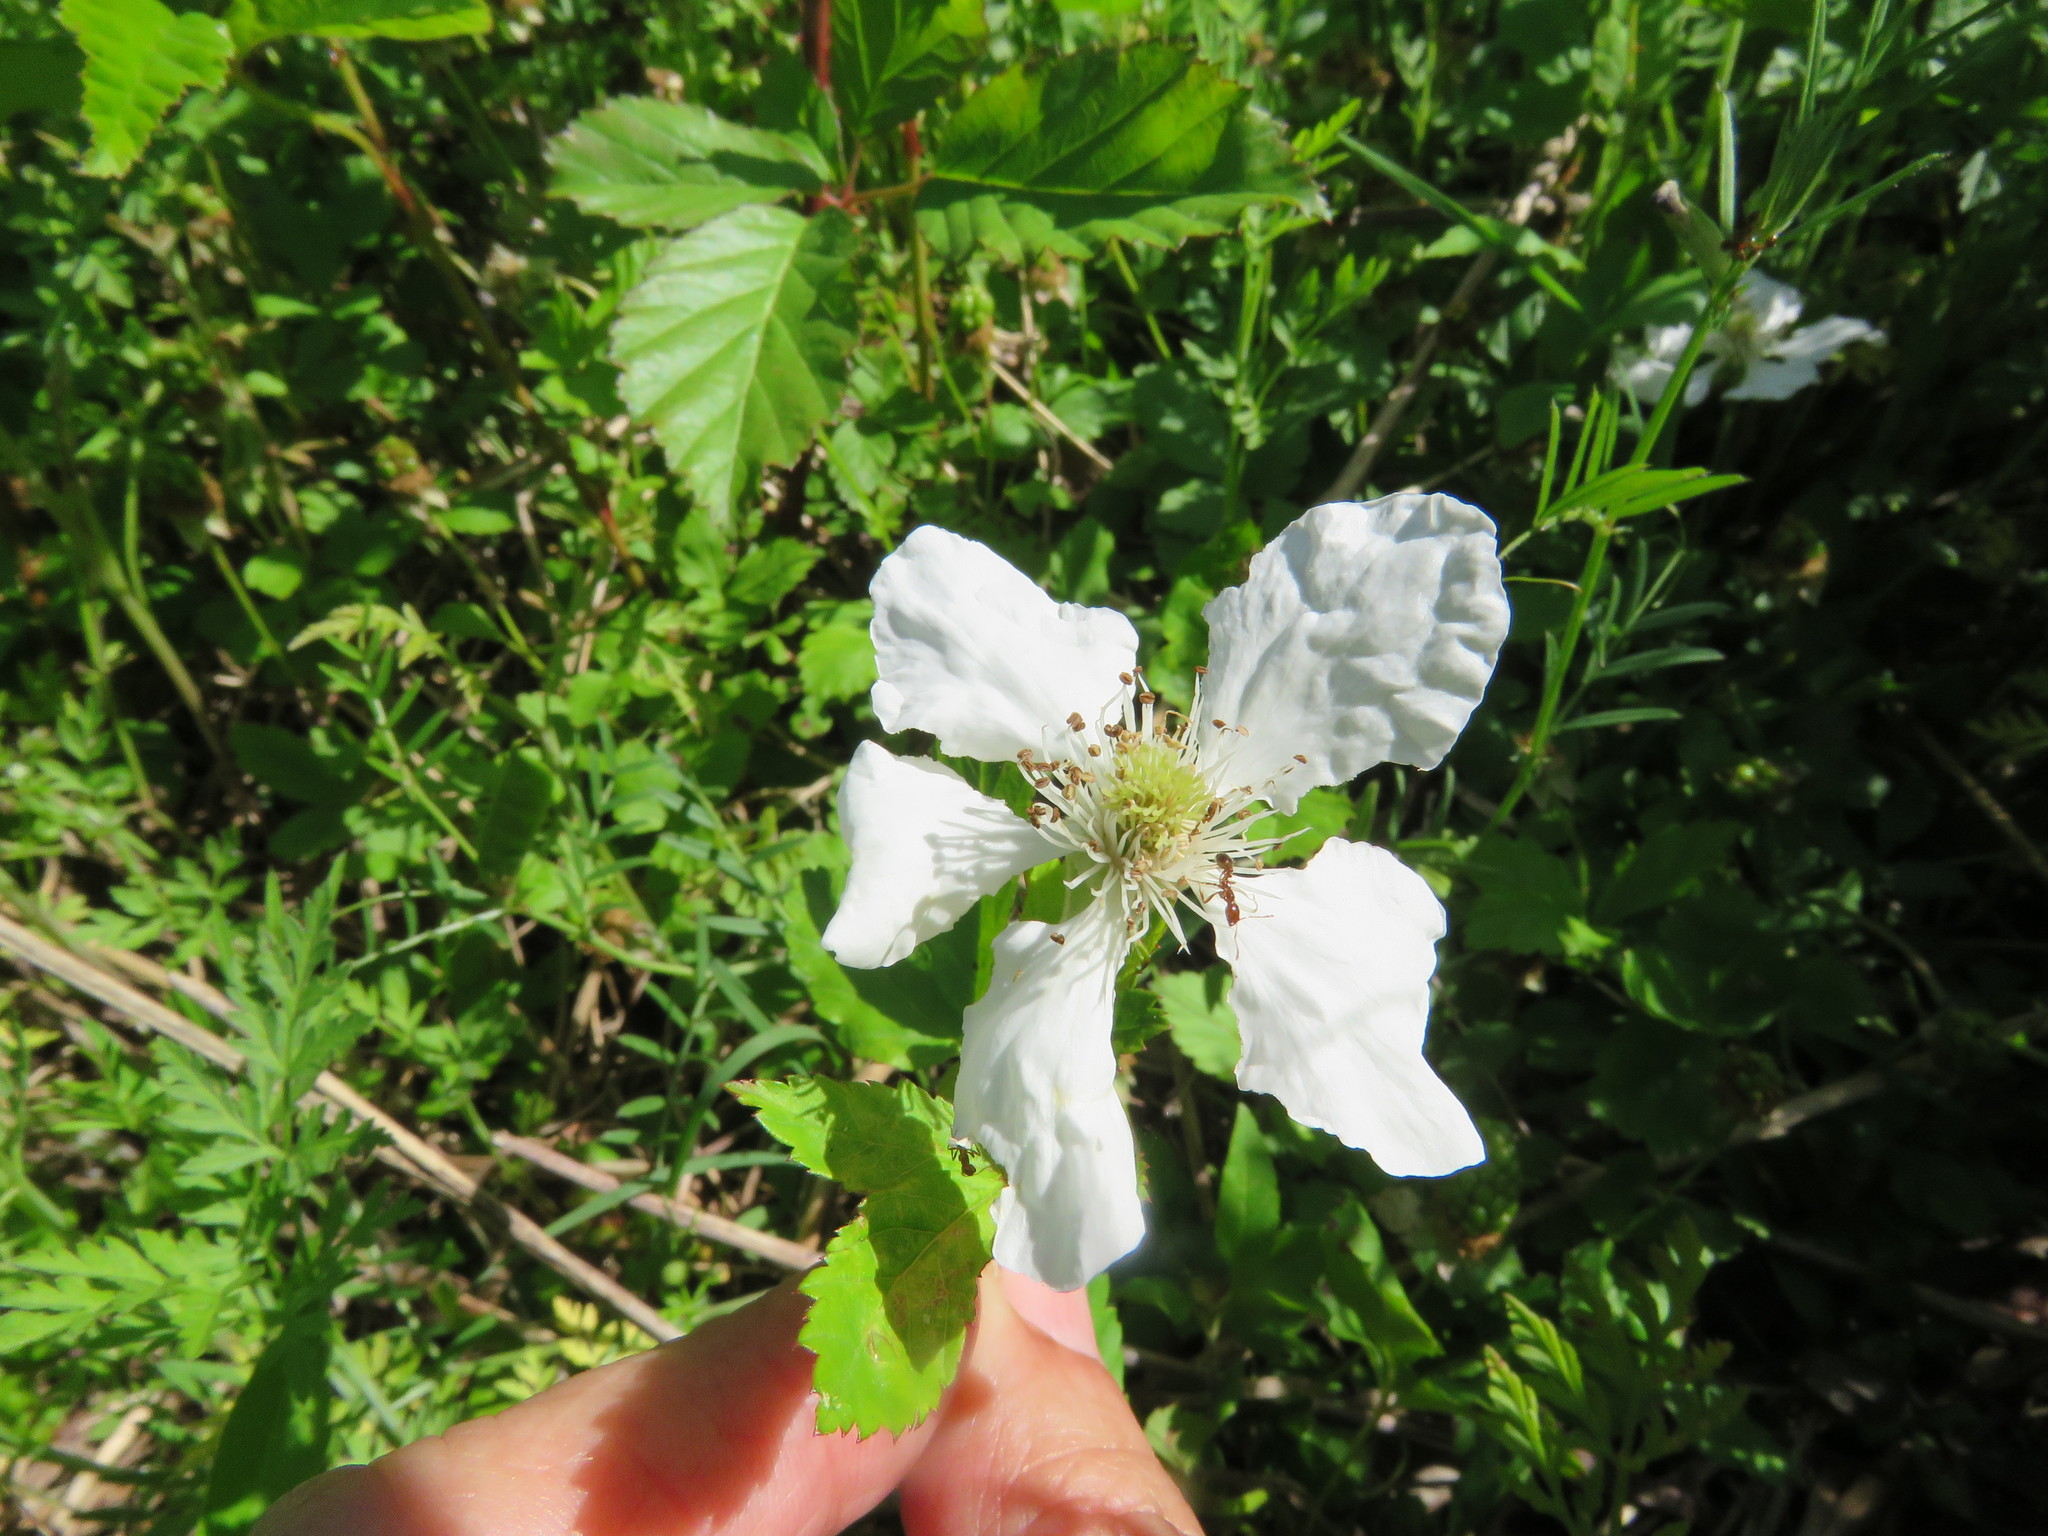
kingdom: Plantae
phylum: Tracheophyta
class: Magnoliopsida
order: Rosales
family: Rosaceae
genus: Rubus
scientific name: Rubus trivialis
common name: Southern dewberry
